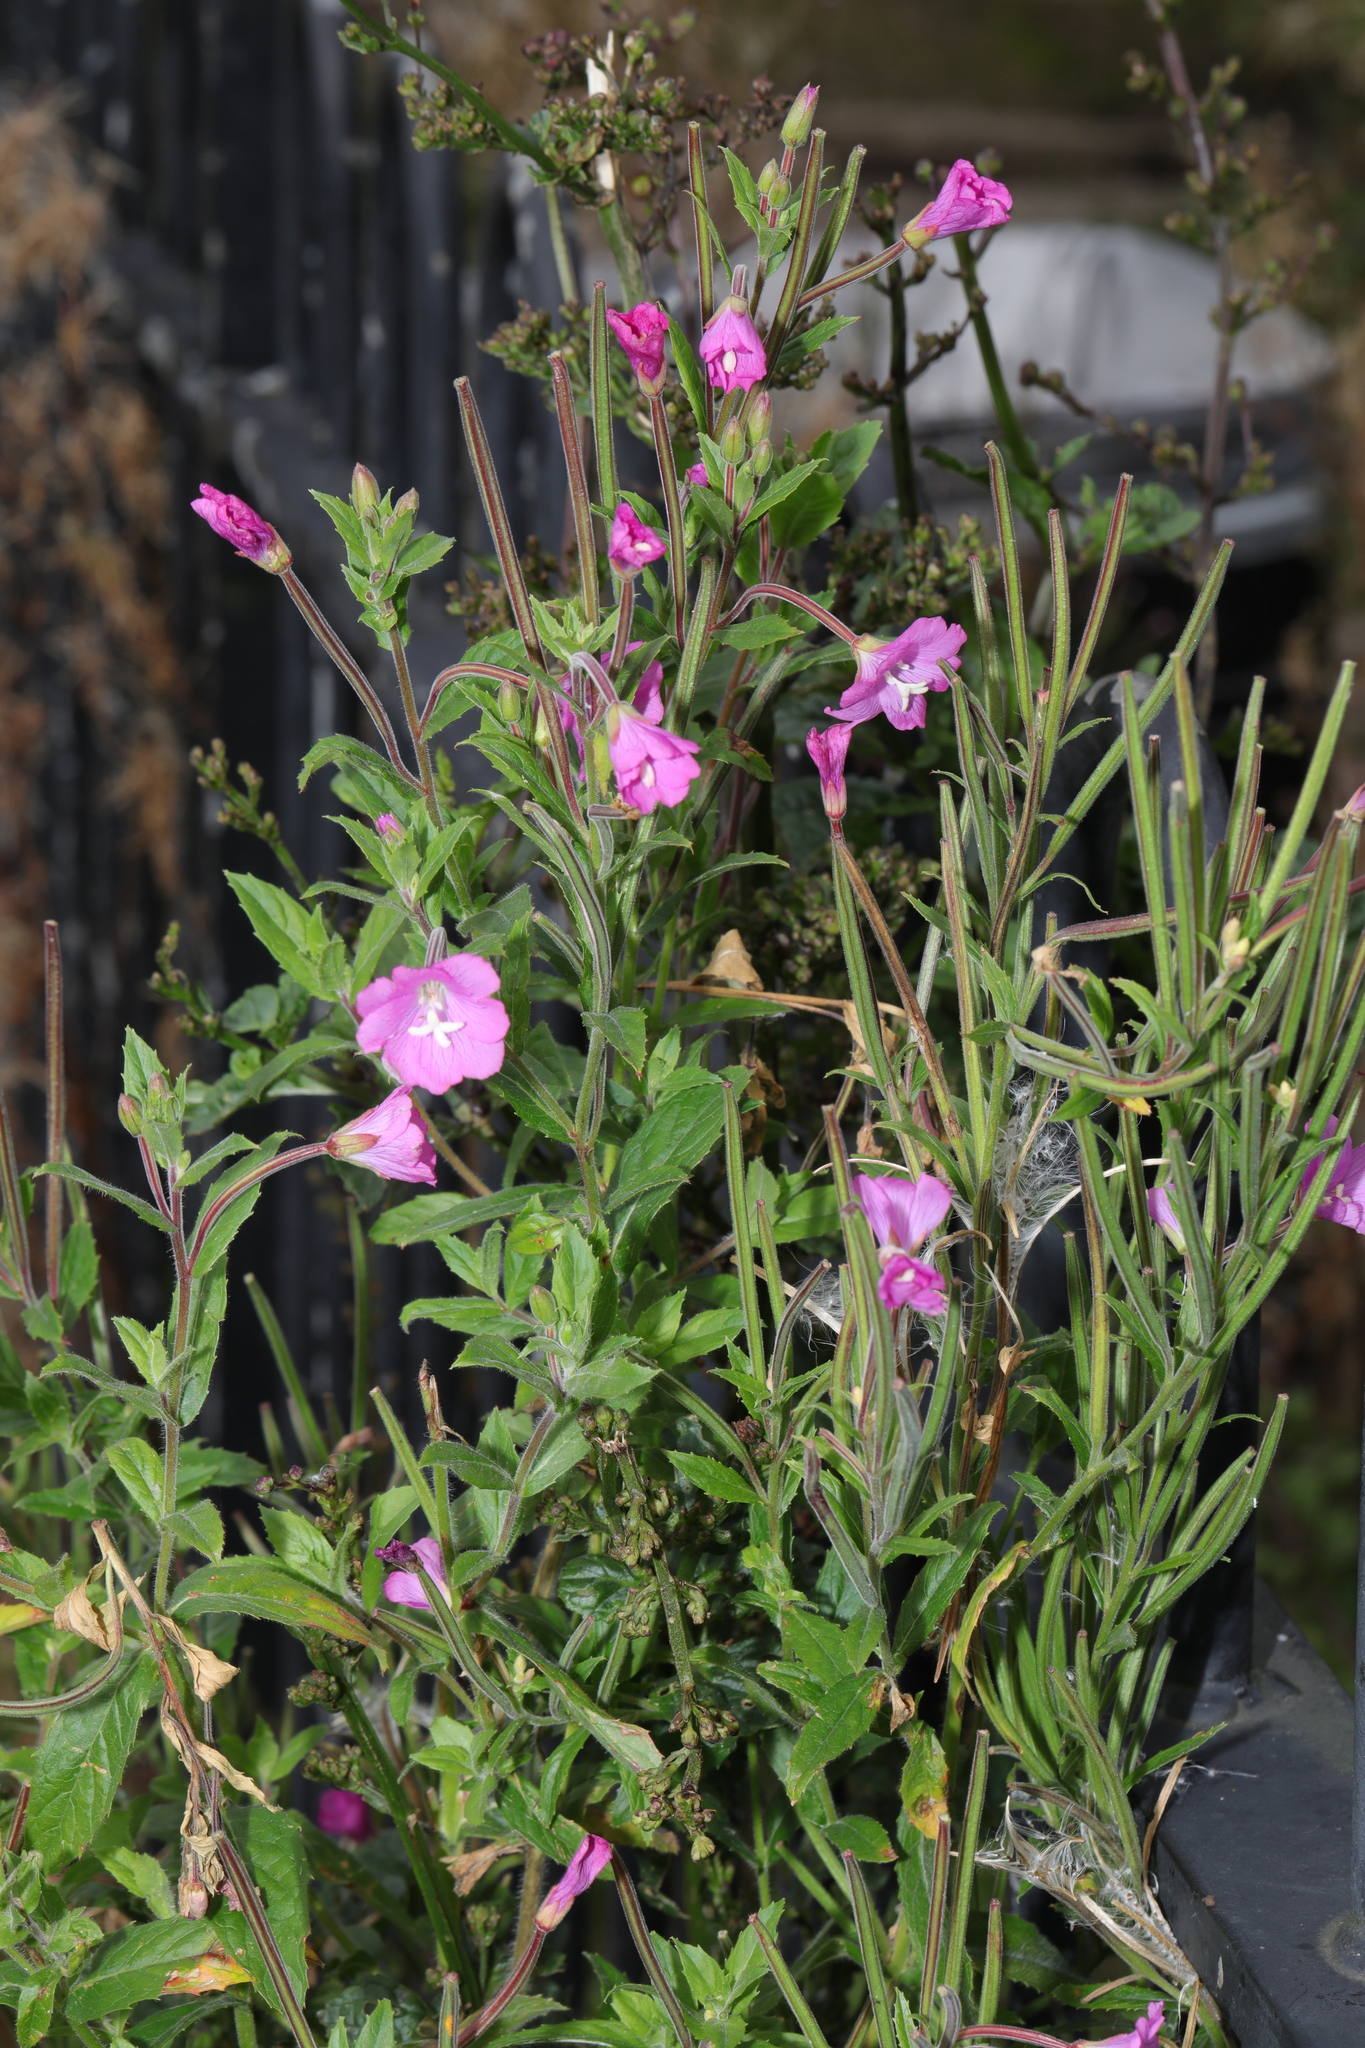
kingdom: Plantae
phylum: Tracheophyta
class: Magnoliopsida
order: Myrtales
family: Onagraceae
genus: Epilobium
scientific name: Epilobium hirsutum
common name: Great willowherb
